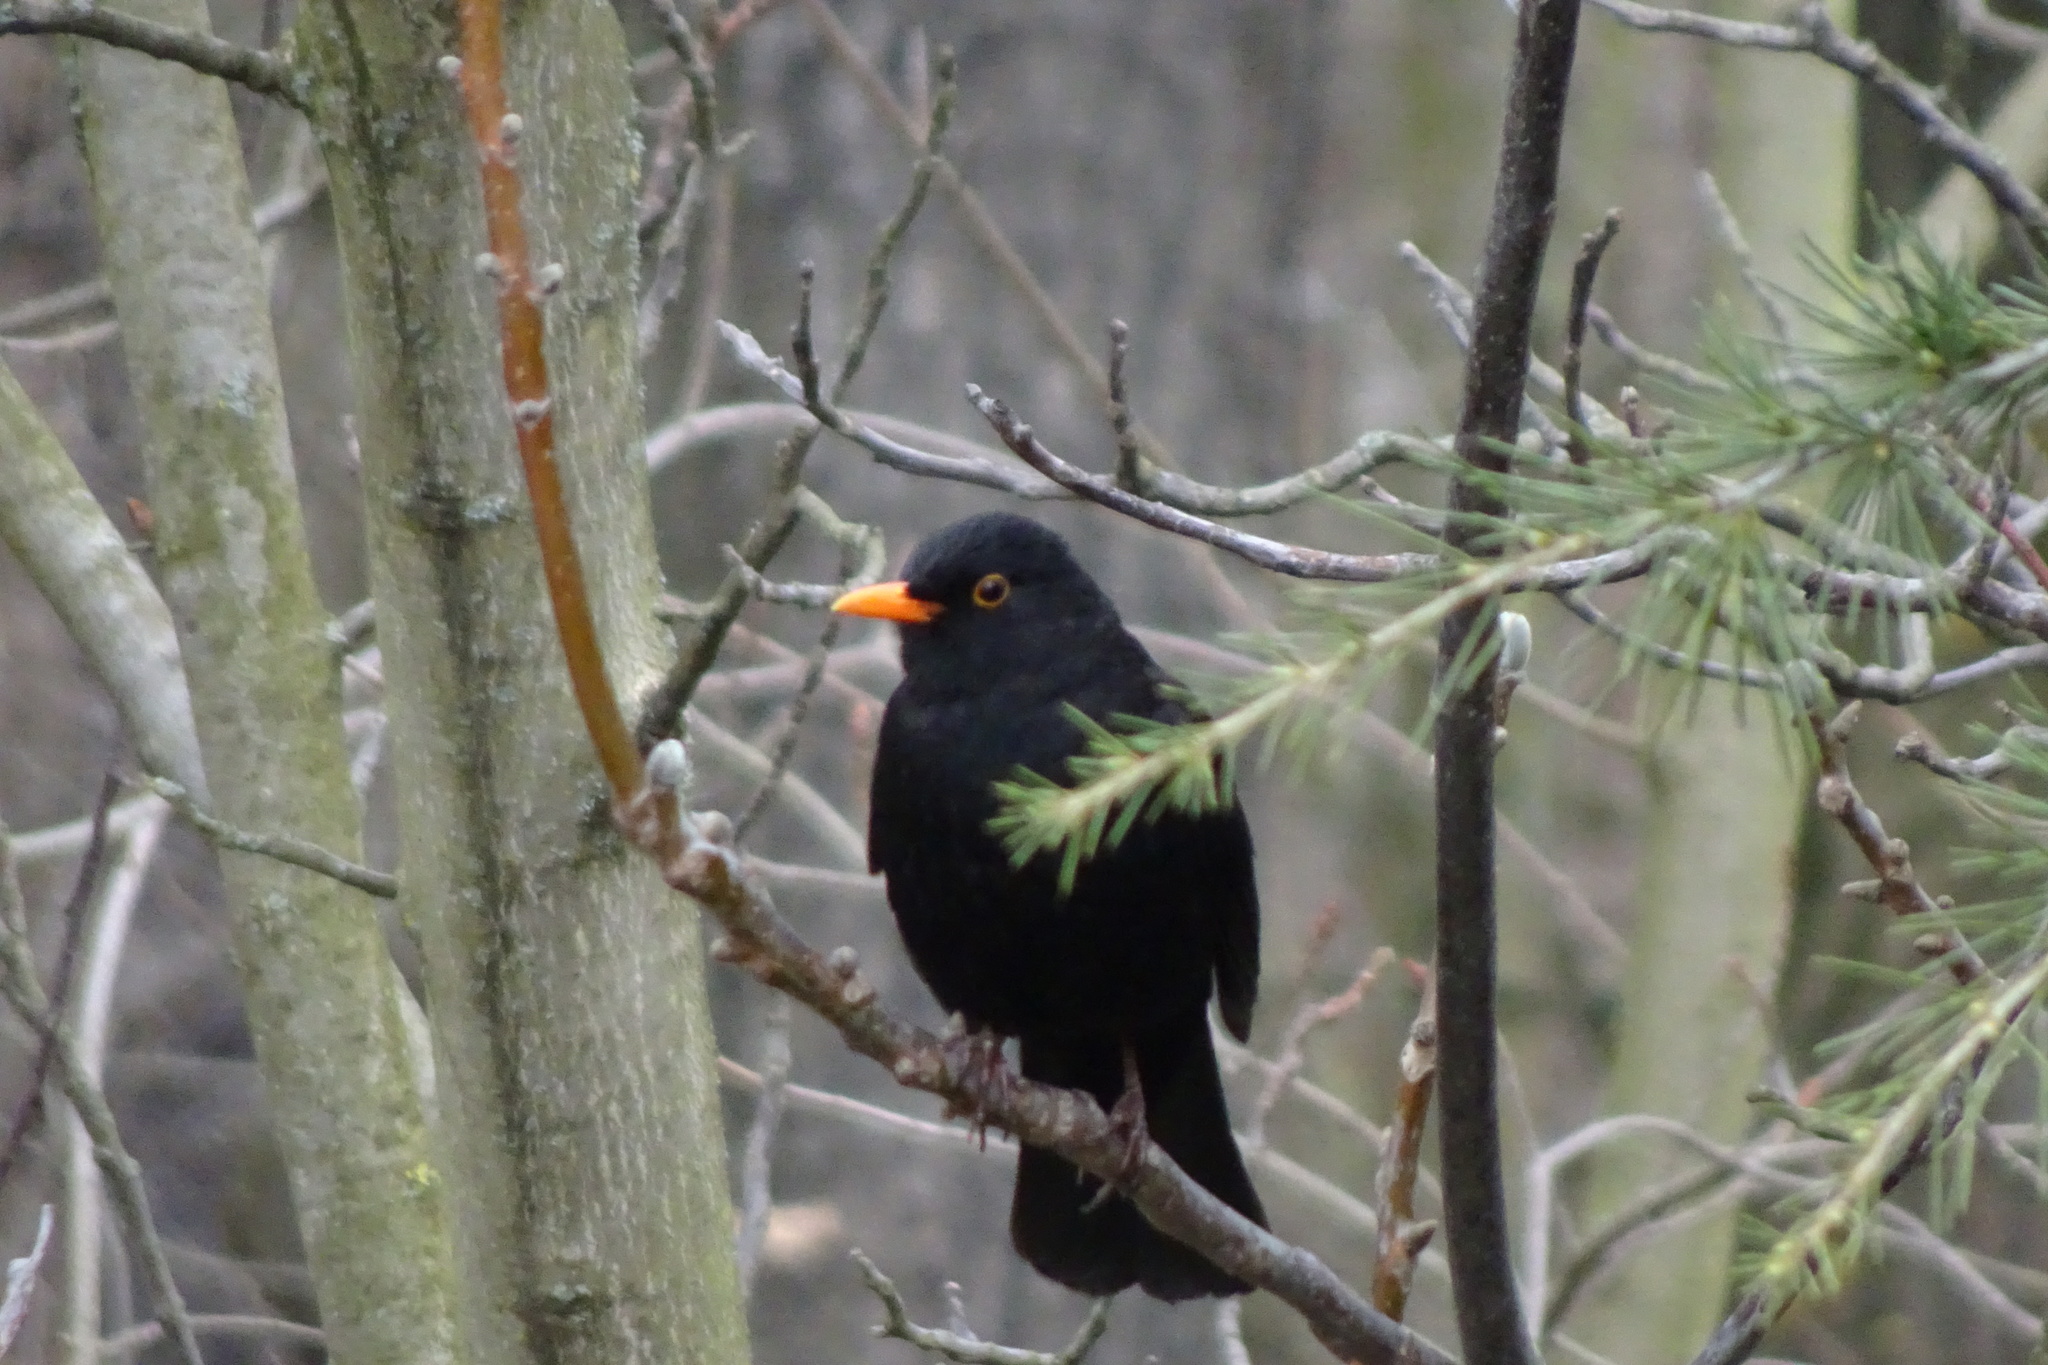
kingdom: Animalia
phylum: Chordata
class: Aves
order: Passeriformes
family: Turdidae
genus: Turdus
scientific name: Turdus merula
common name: Common blackbird
